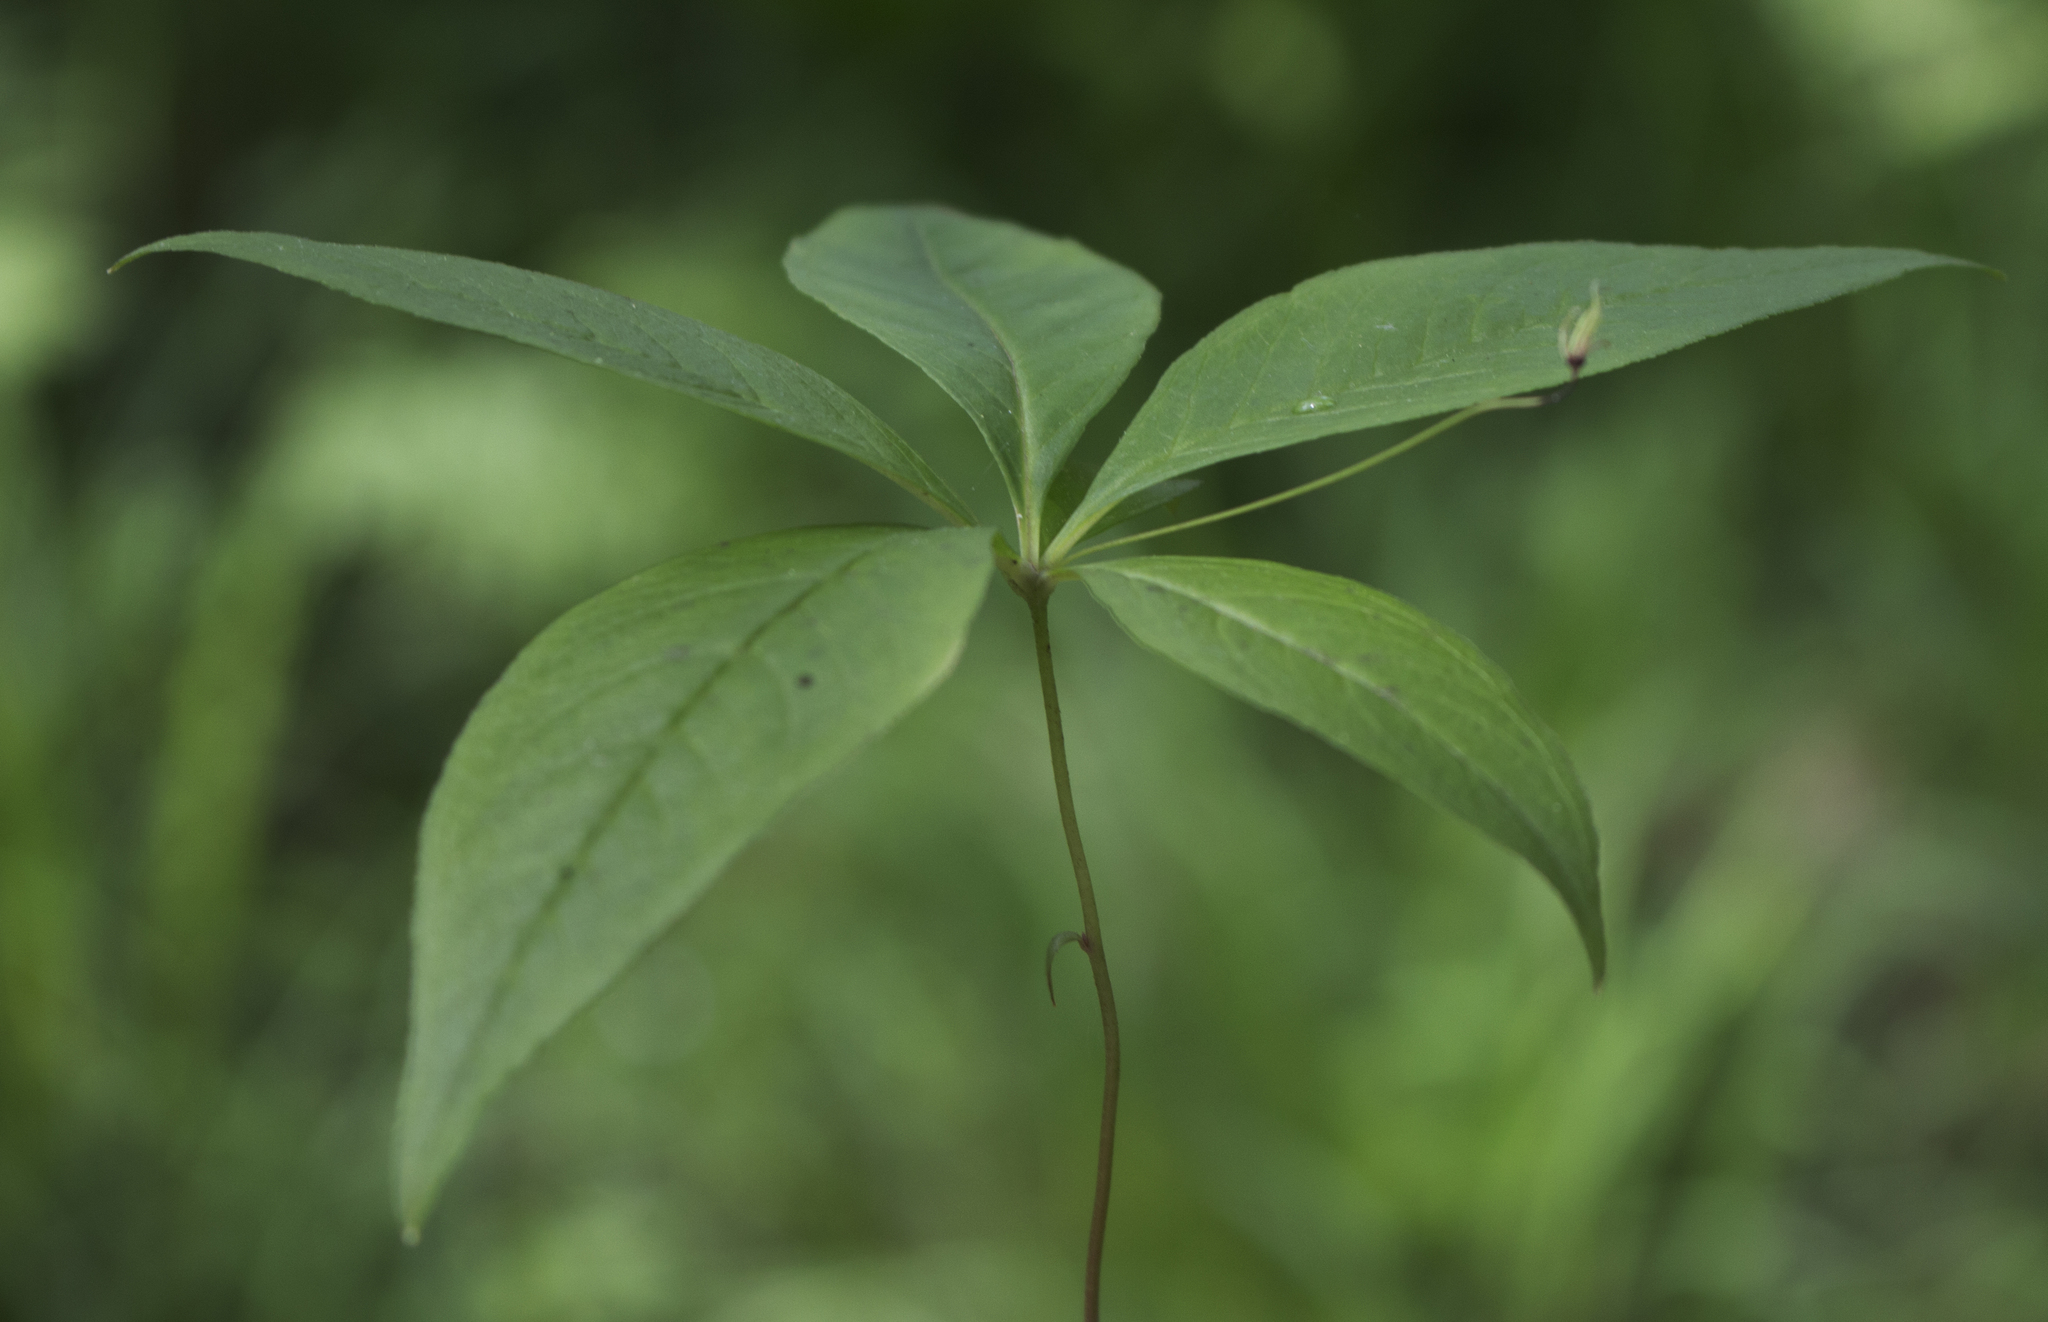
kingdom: Plantae
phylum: Tracheophyta
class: Magnoliopsida
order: Ericales
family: Primulaceae
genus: Lysimachia
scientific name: Lysimachia borealis
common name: American starflower
